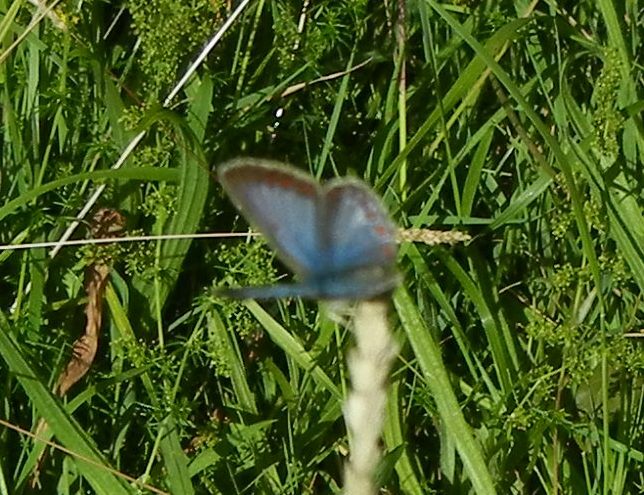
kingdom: Animalia
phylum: Arthropoda
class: Insecta
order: Lepidoptera
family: Lycaenidae
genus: Polyommatus
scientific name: Polyommatus icarus
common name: Common blue
